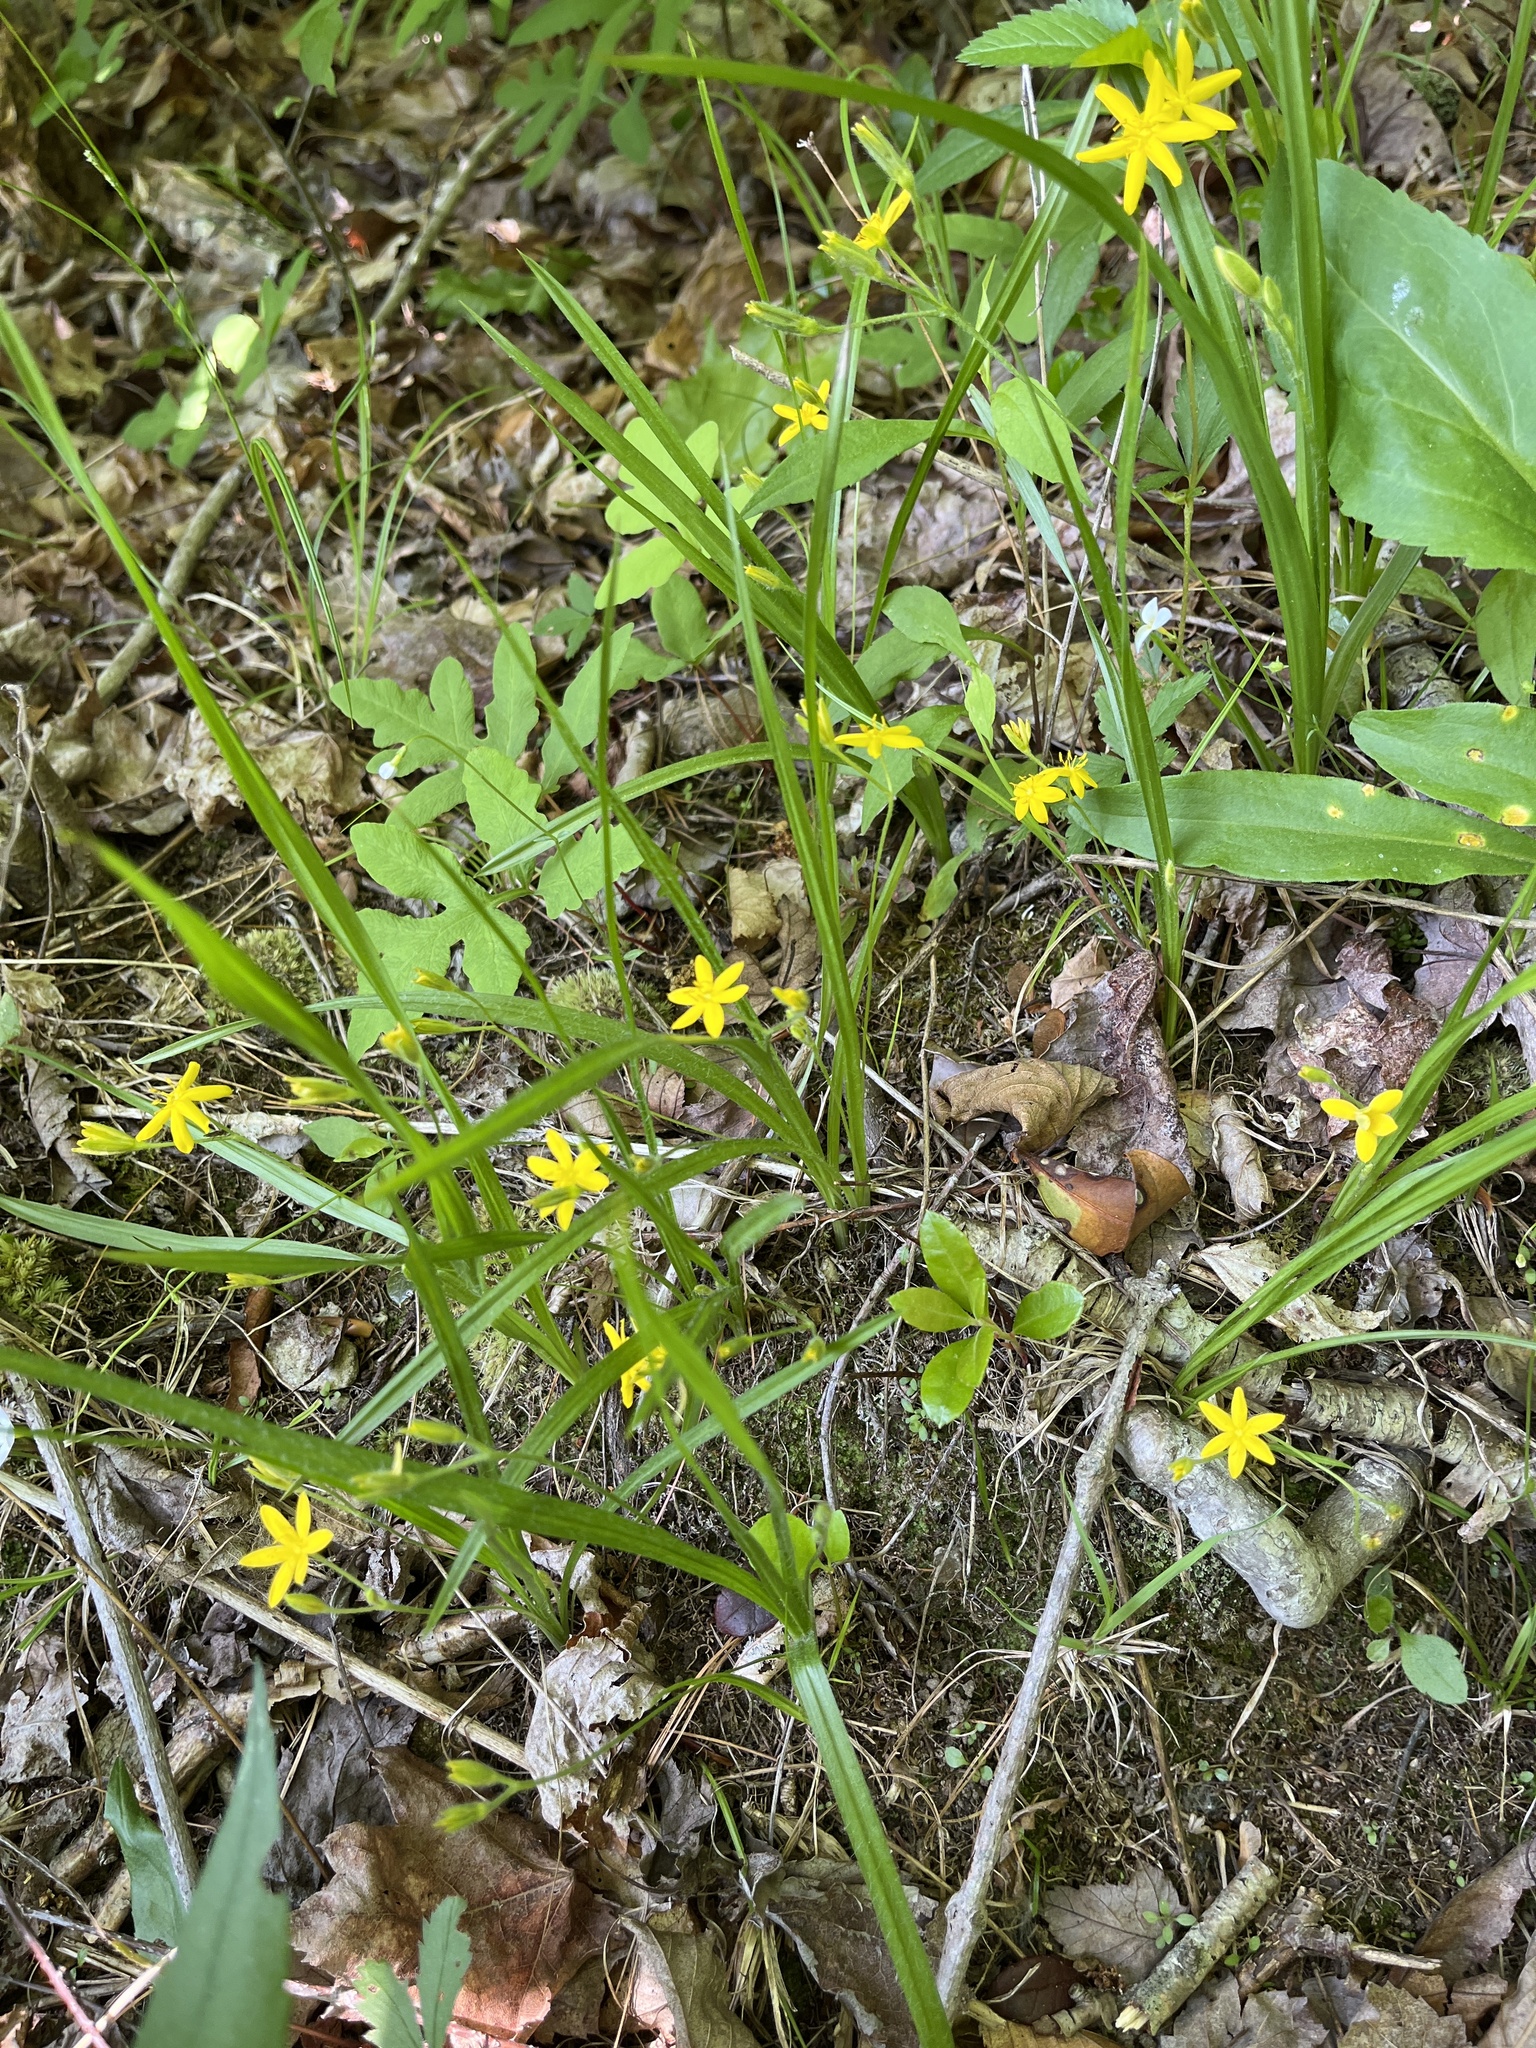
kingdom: Plantae
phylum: Tracheophyta
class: Liliopsida
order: Asparagales
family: Hypoxidaceae
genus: Hypoxis
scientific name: Hypoxis hirsuta
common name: Common goldstar
